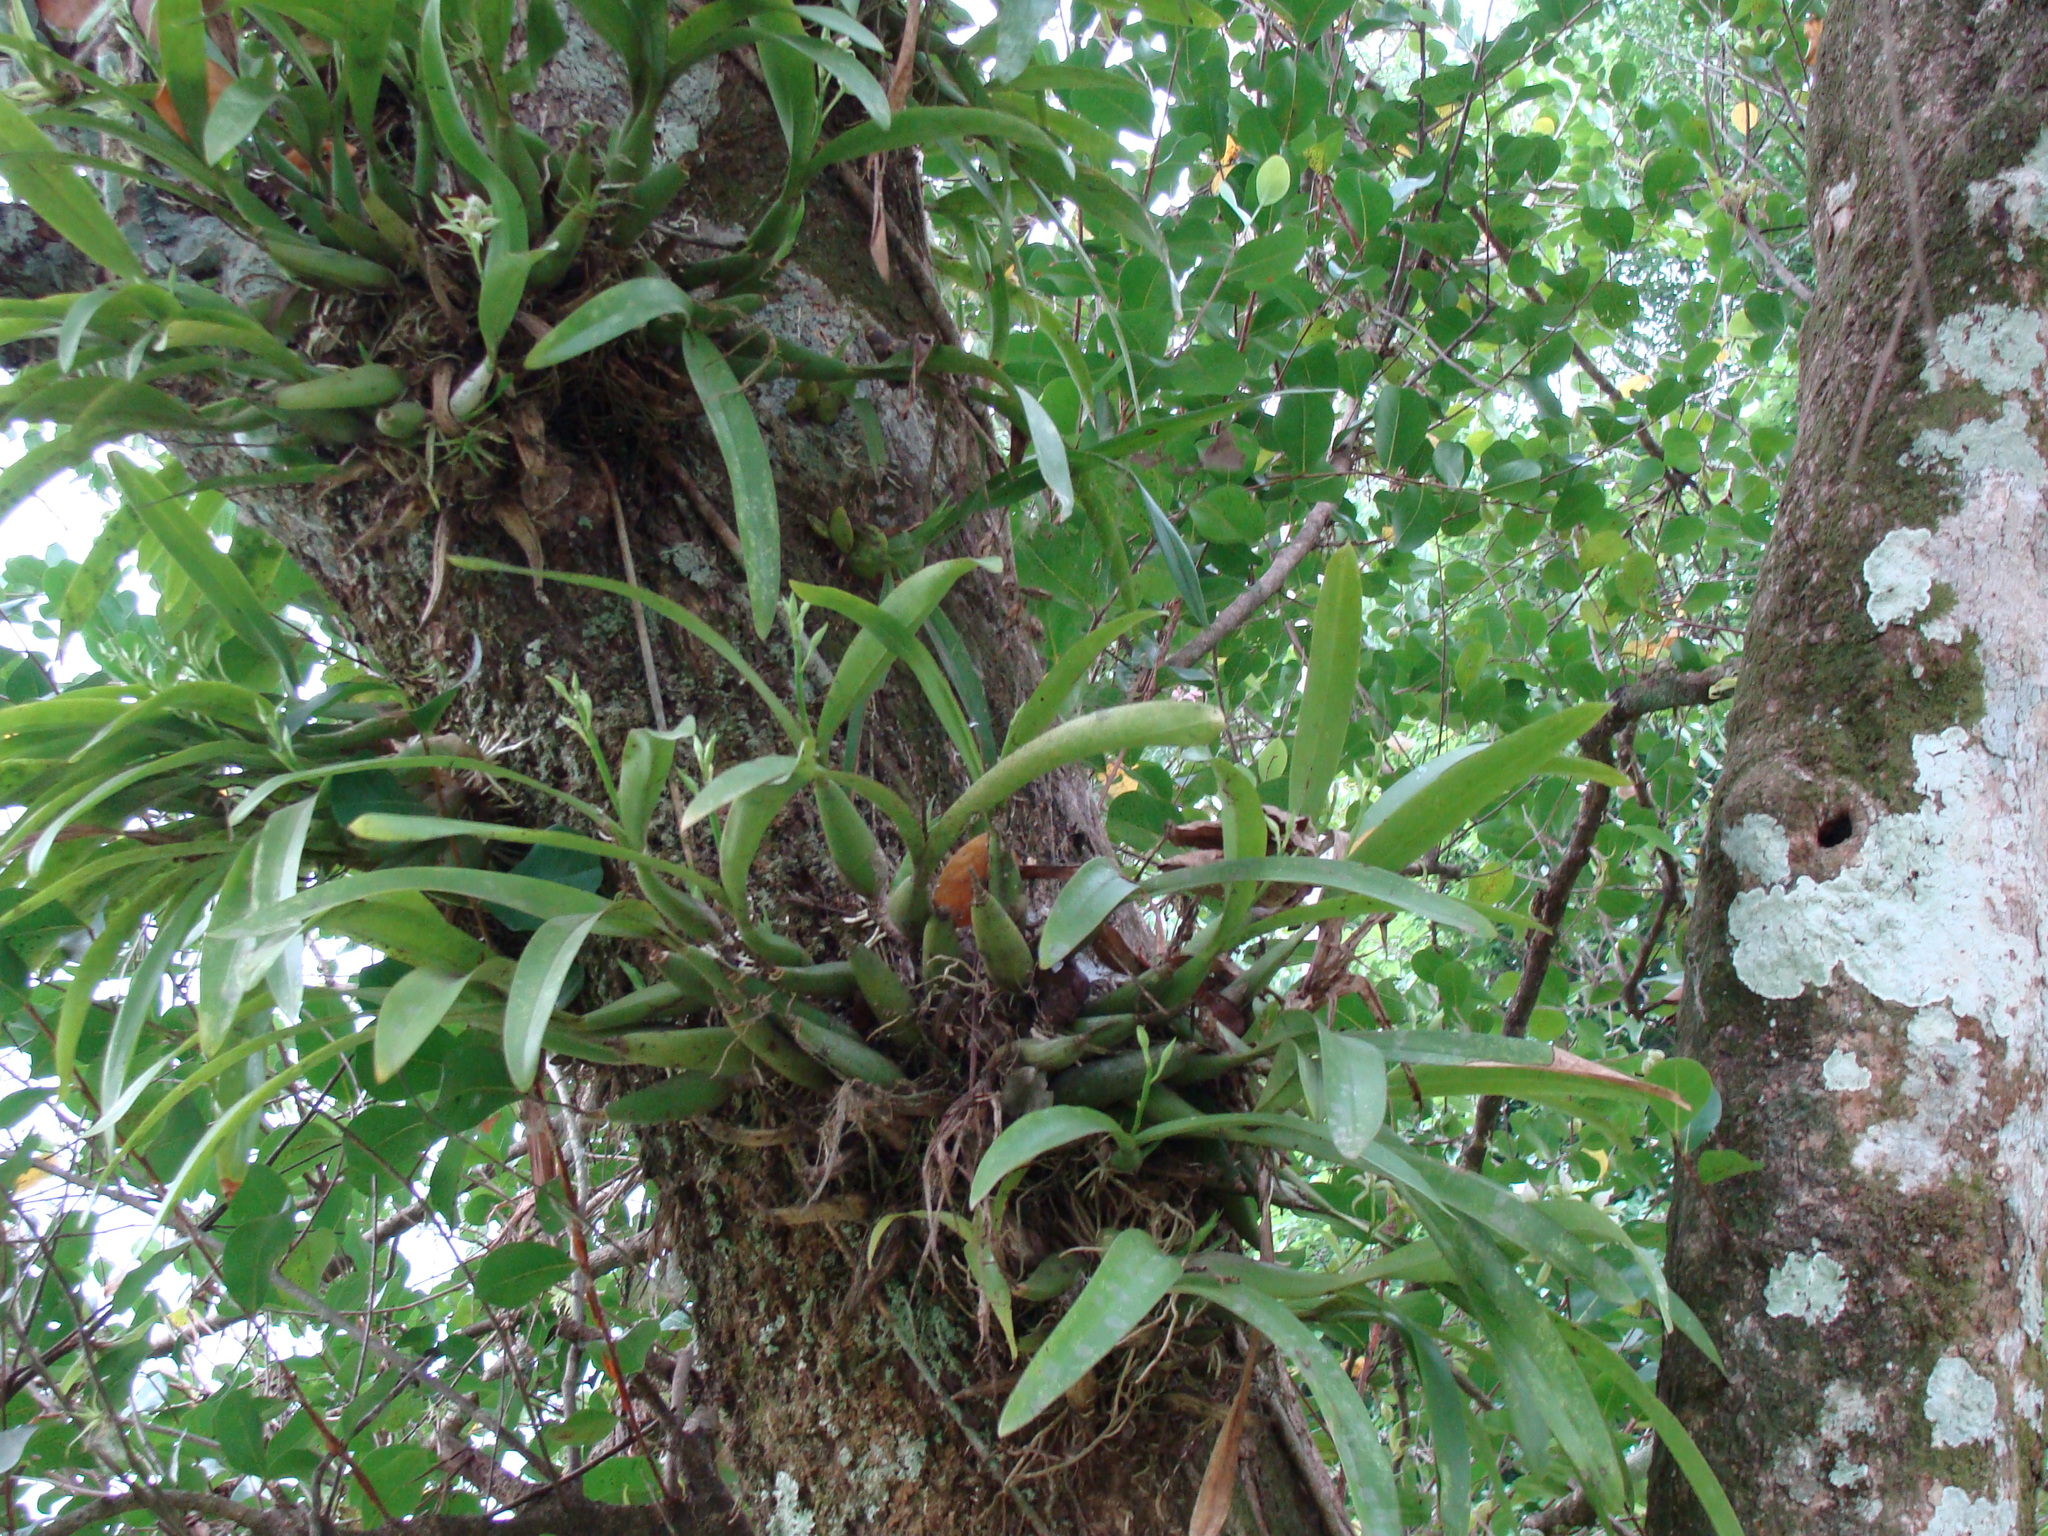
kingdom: Plantae
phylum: Tracheophyta
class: Liliopsida
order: Asparagales
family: Orchidaceae
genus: Prosthechea
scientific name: Prosthechea chacaoensis
